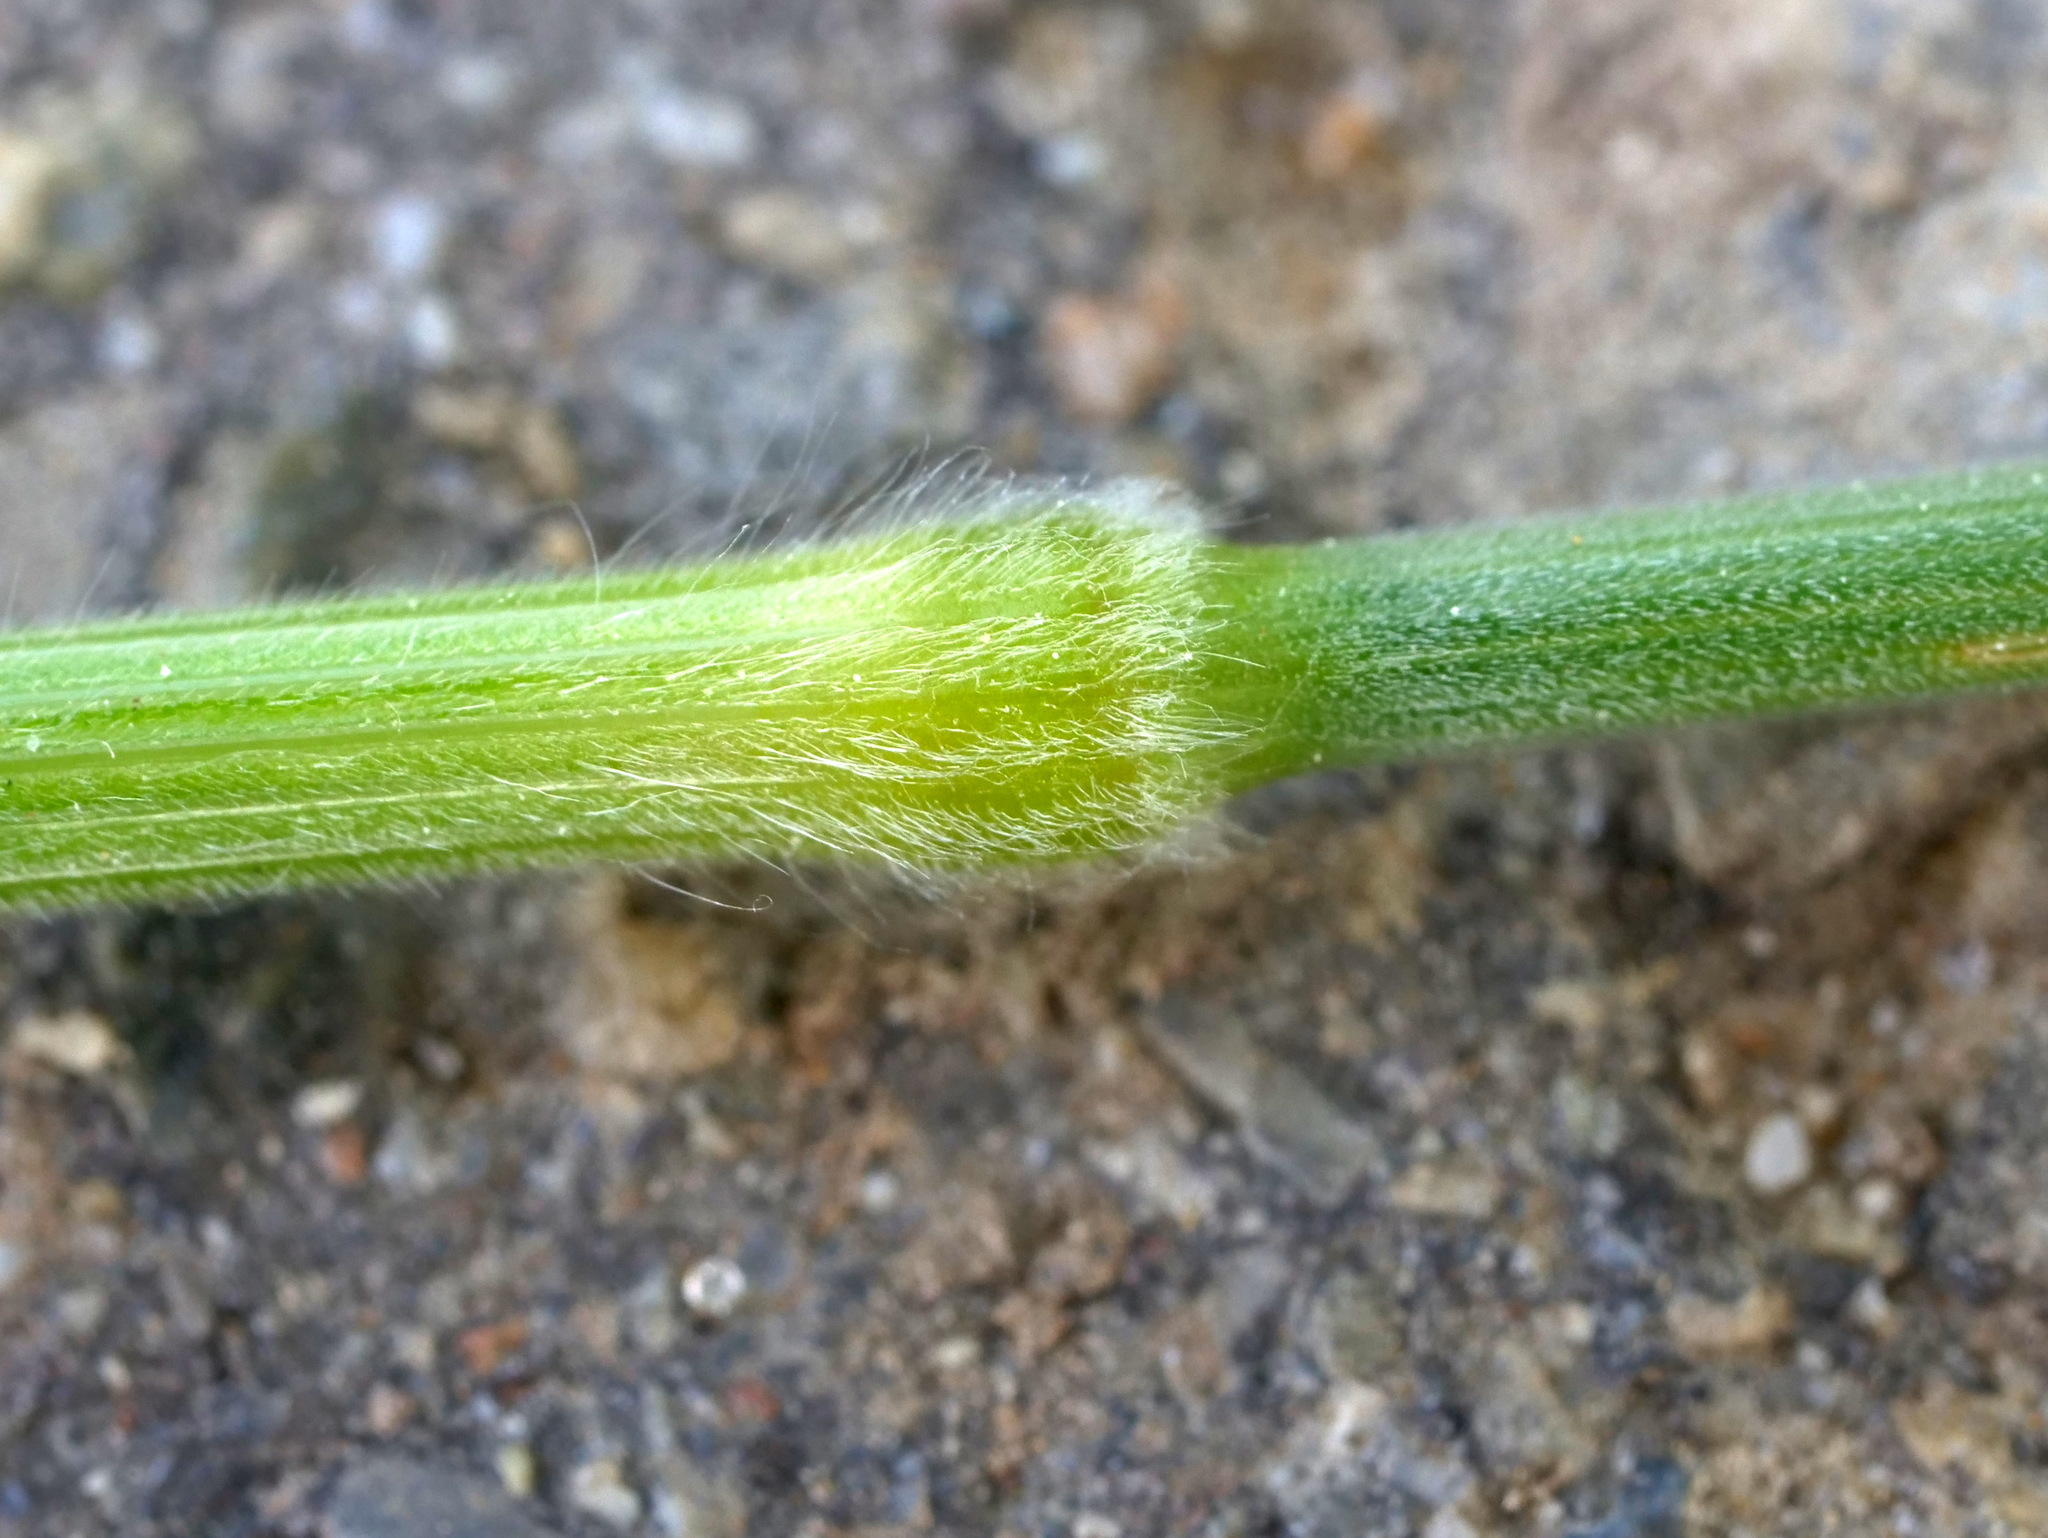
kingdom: Plantae
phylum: Tracheophyta
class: Liliopsida
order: Poales
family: Poaceae
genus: Bromus
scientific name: Bromus hordeaceus
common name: Soft brome
